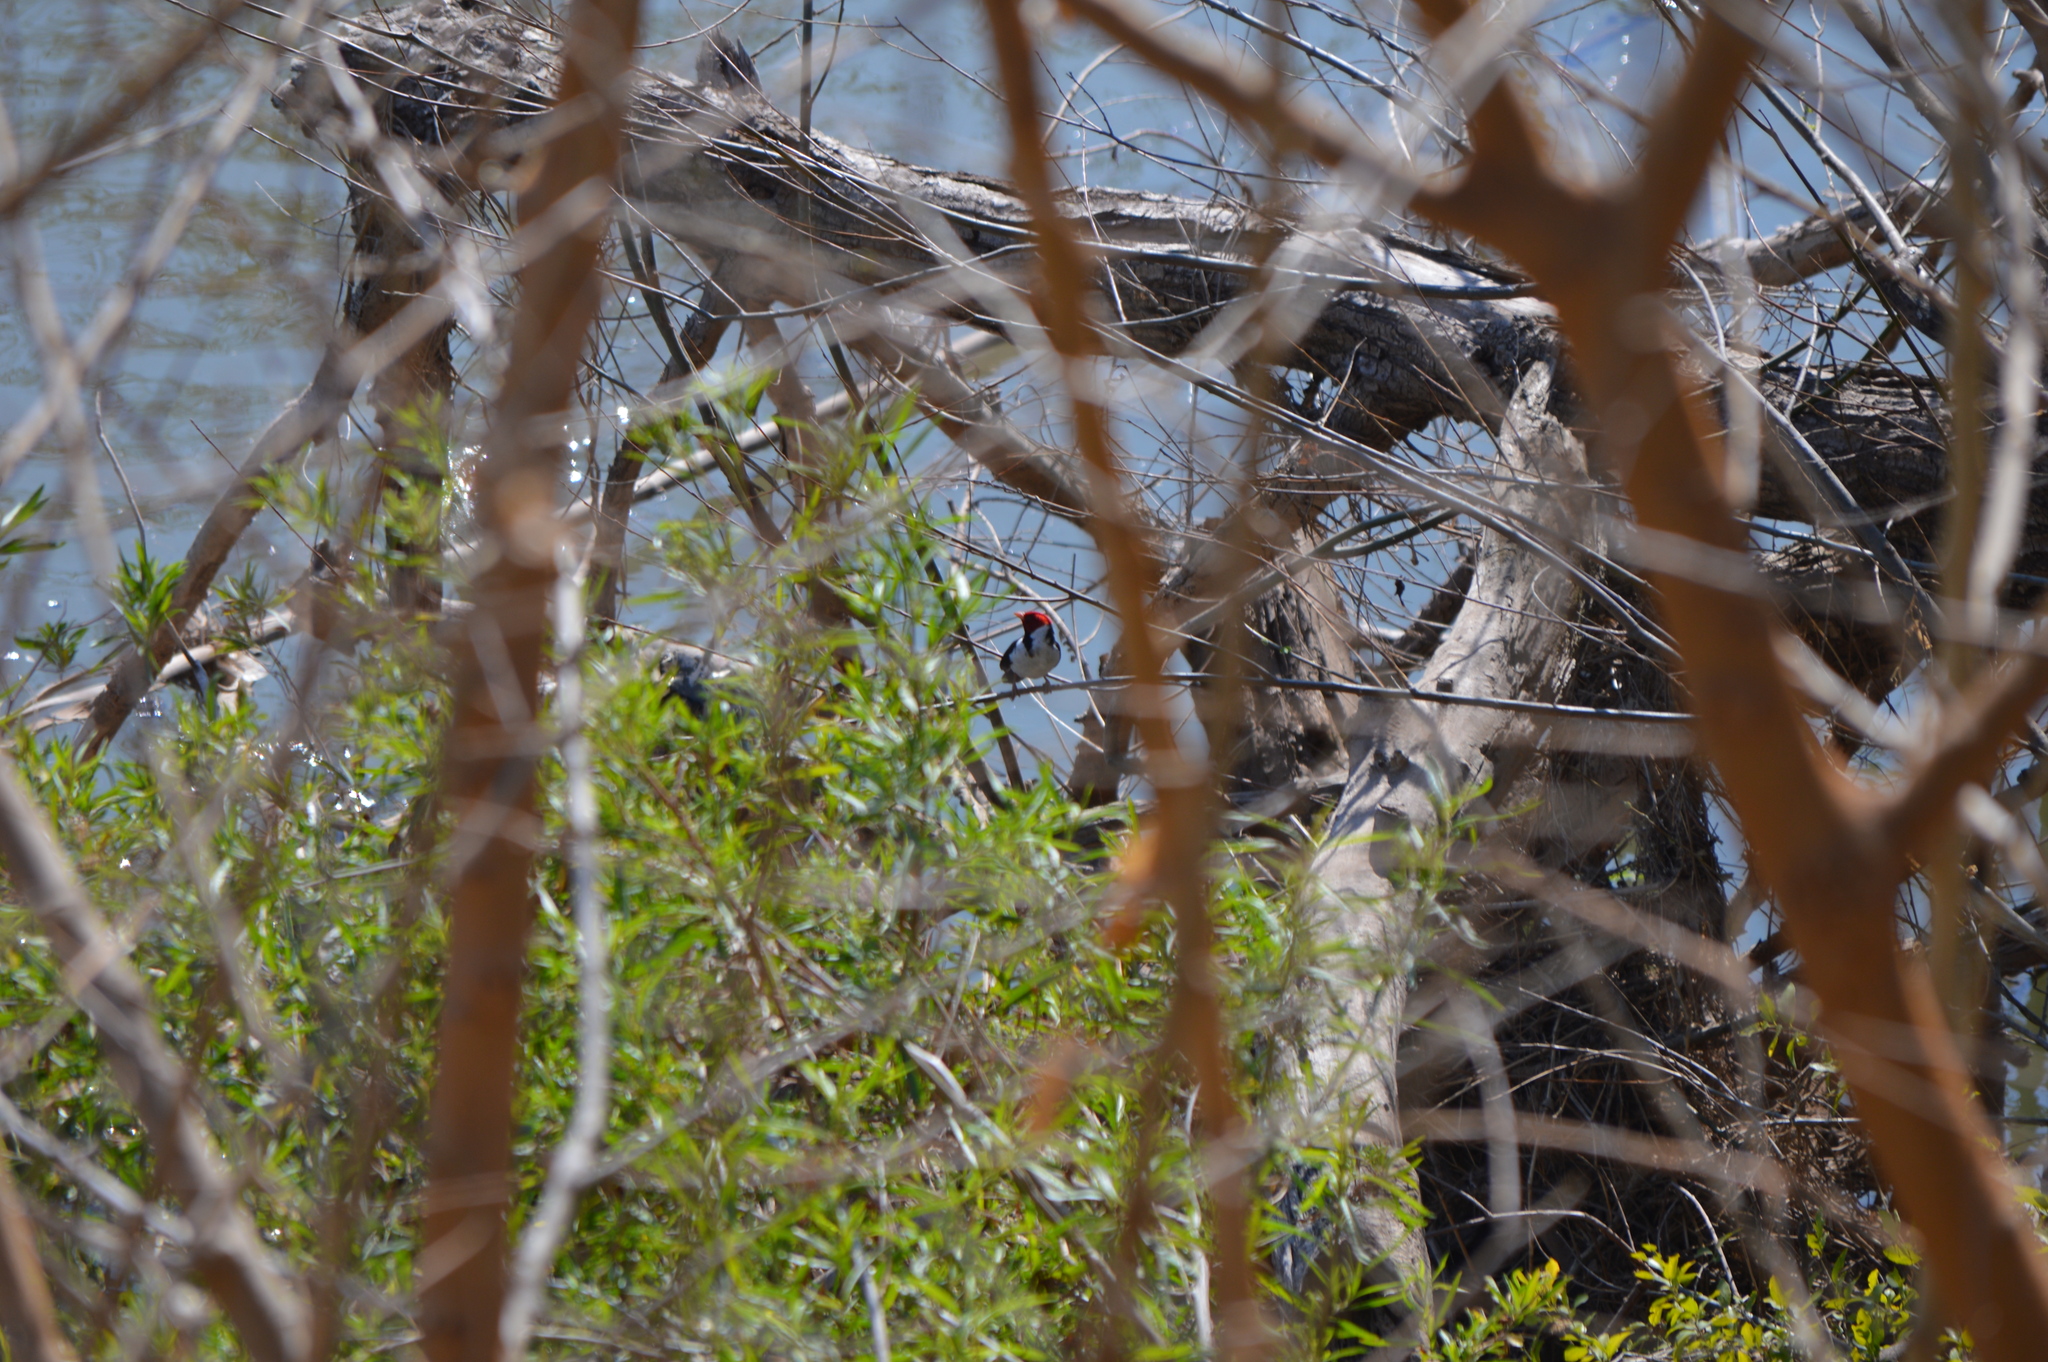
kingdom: Animalia
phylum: Chordata
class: Aves
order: Passeriformes
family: Thraupidae
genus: Paroaria
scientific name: Paroaria capitata
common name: Yellow-billed cardinal
